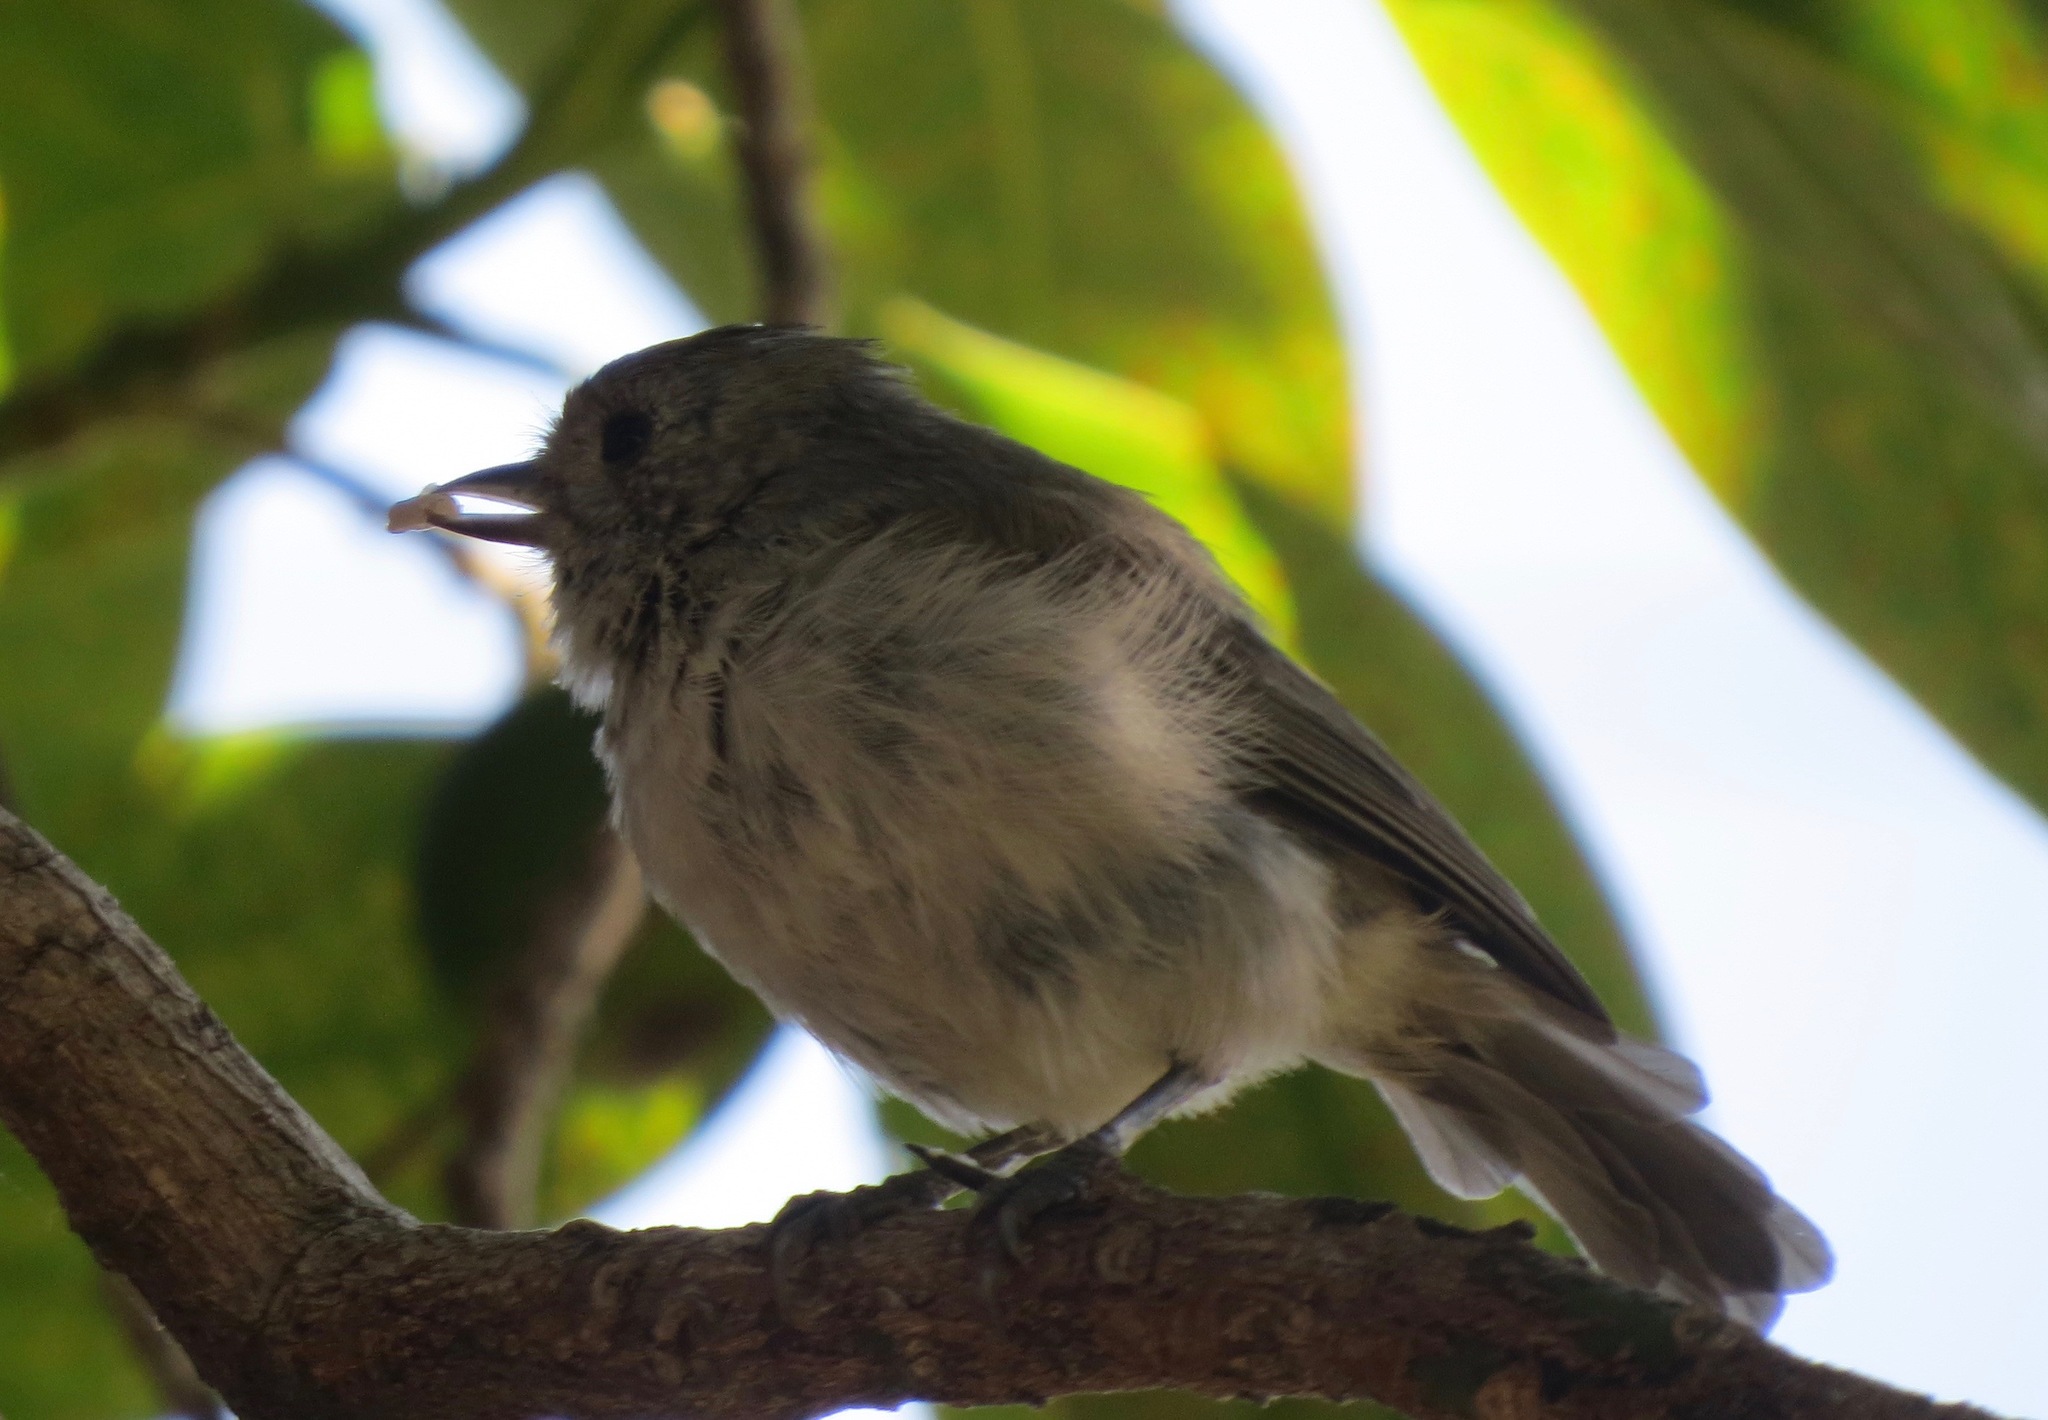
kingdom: Animalia
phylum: Chordata
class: Aves
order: Passeriformes
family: Paridae
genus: Baeolophus
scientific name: Baeolophus inornatus
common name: Oak titmouse
